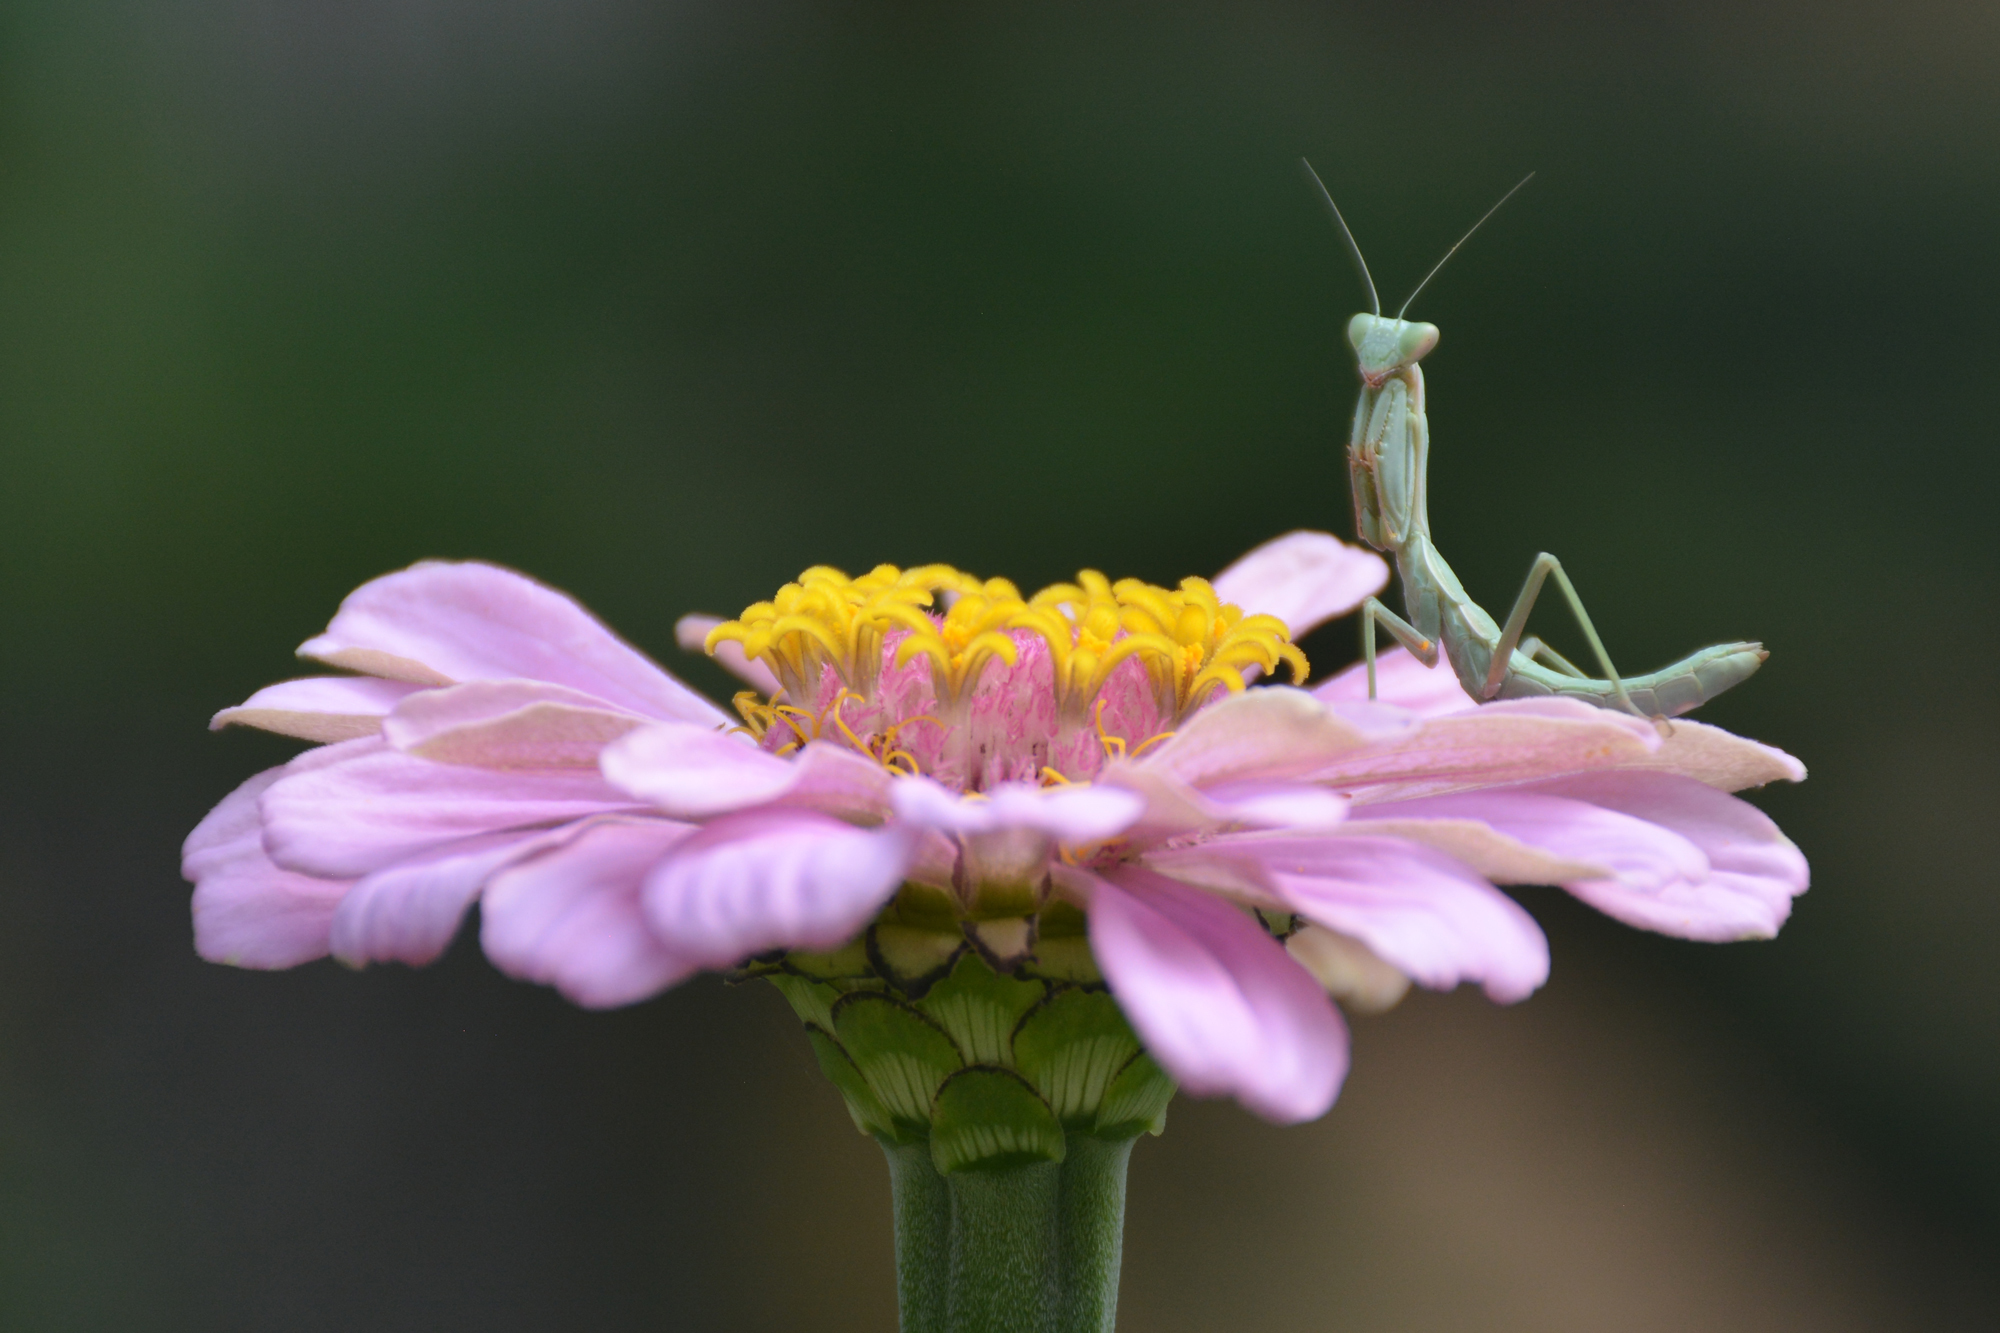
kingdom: Animalia
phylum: Arthropoda
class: Insecta
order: Mantodea
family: Eremiaphilidae
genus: Iris
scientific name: Iris polystictica
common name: Dot-winged mantis
